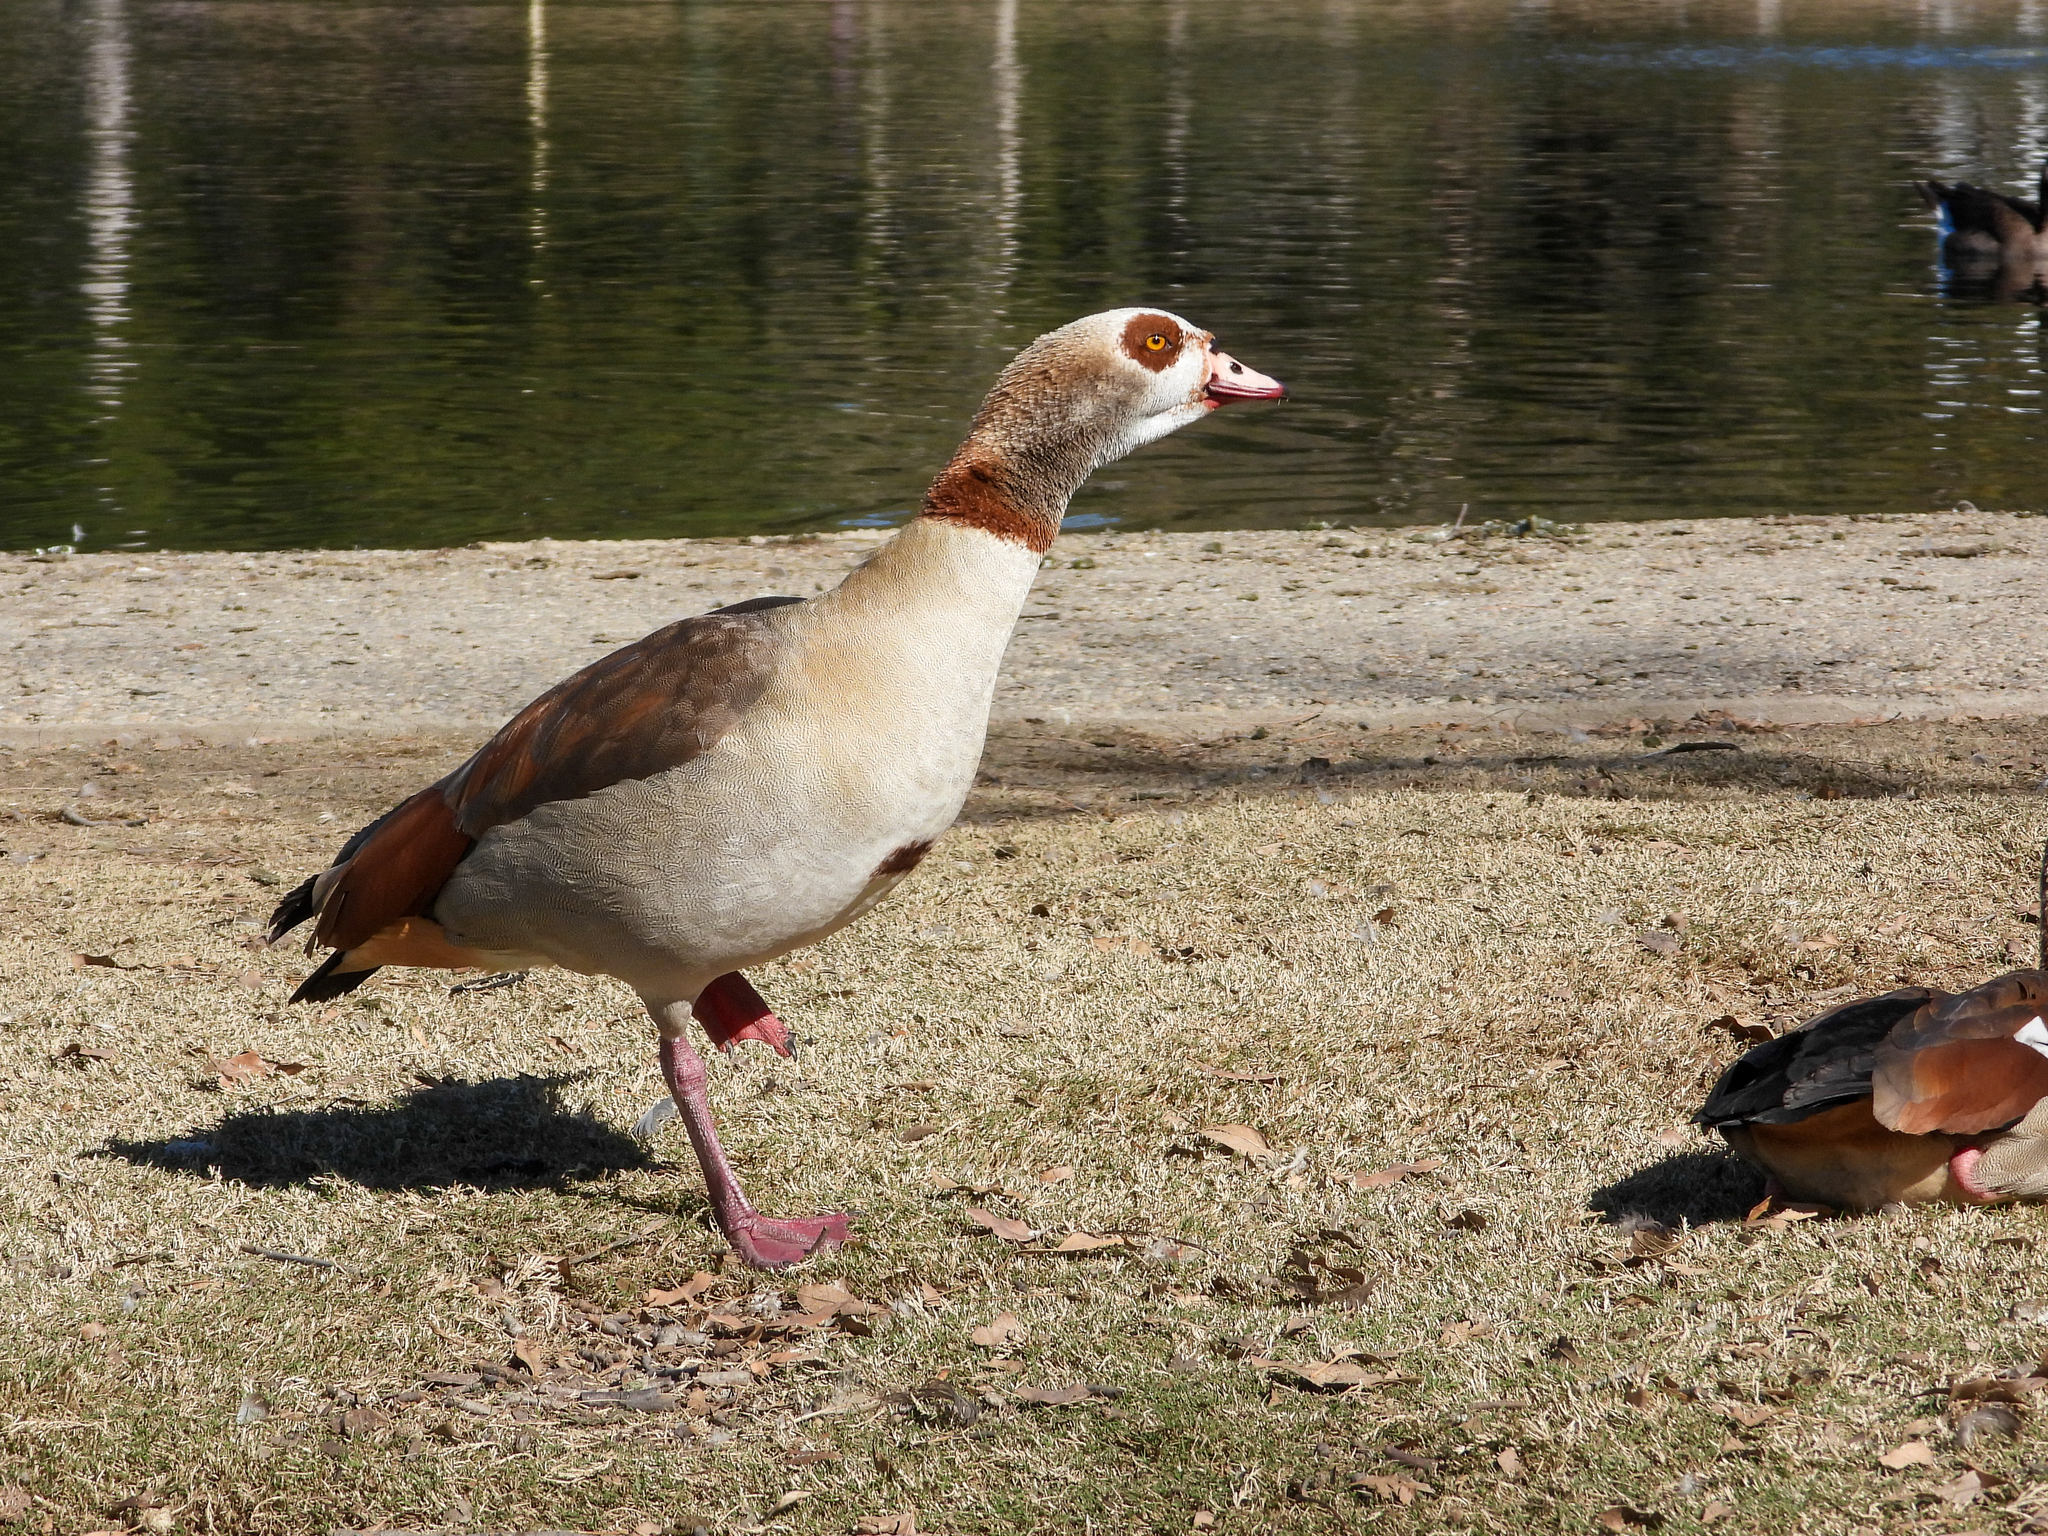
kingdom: Animalia
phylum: Chordata
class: Aves
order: Anseriformes
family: Anatidae
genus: Alopochen
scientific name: Alopochen aegyptiaca
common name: Egyptian goose
